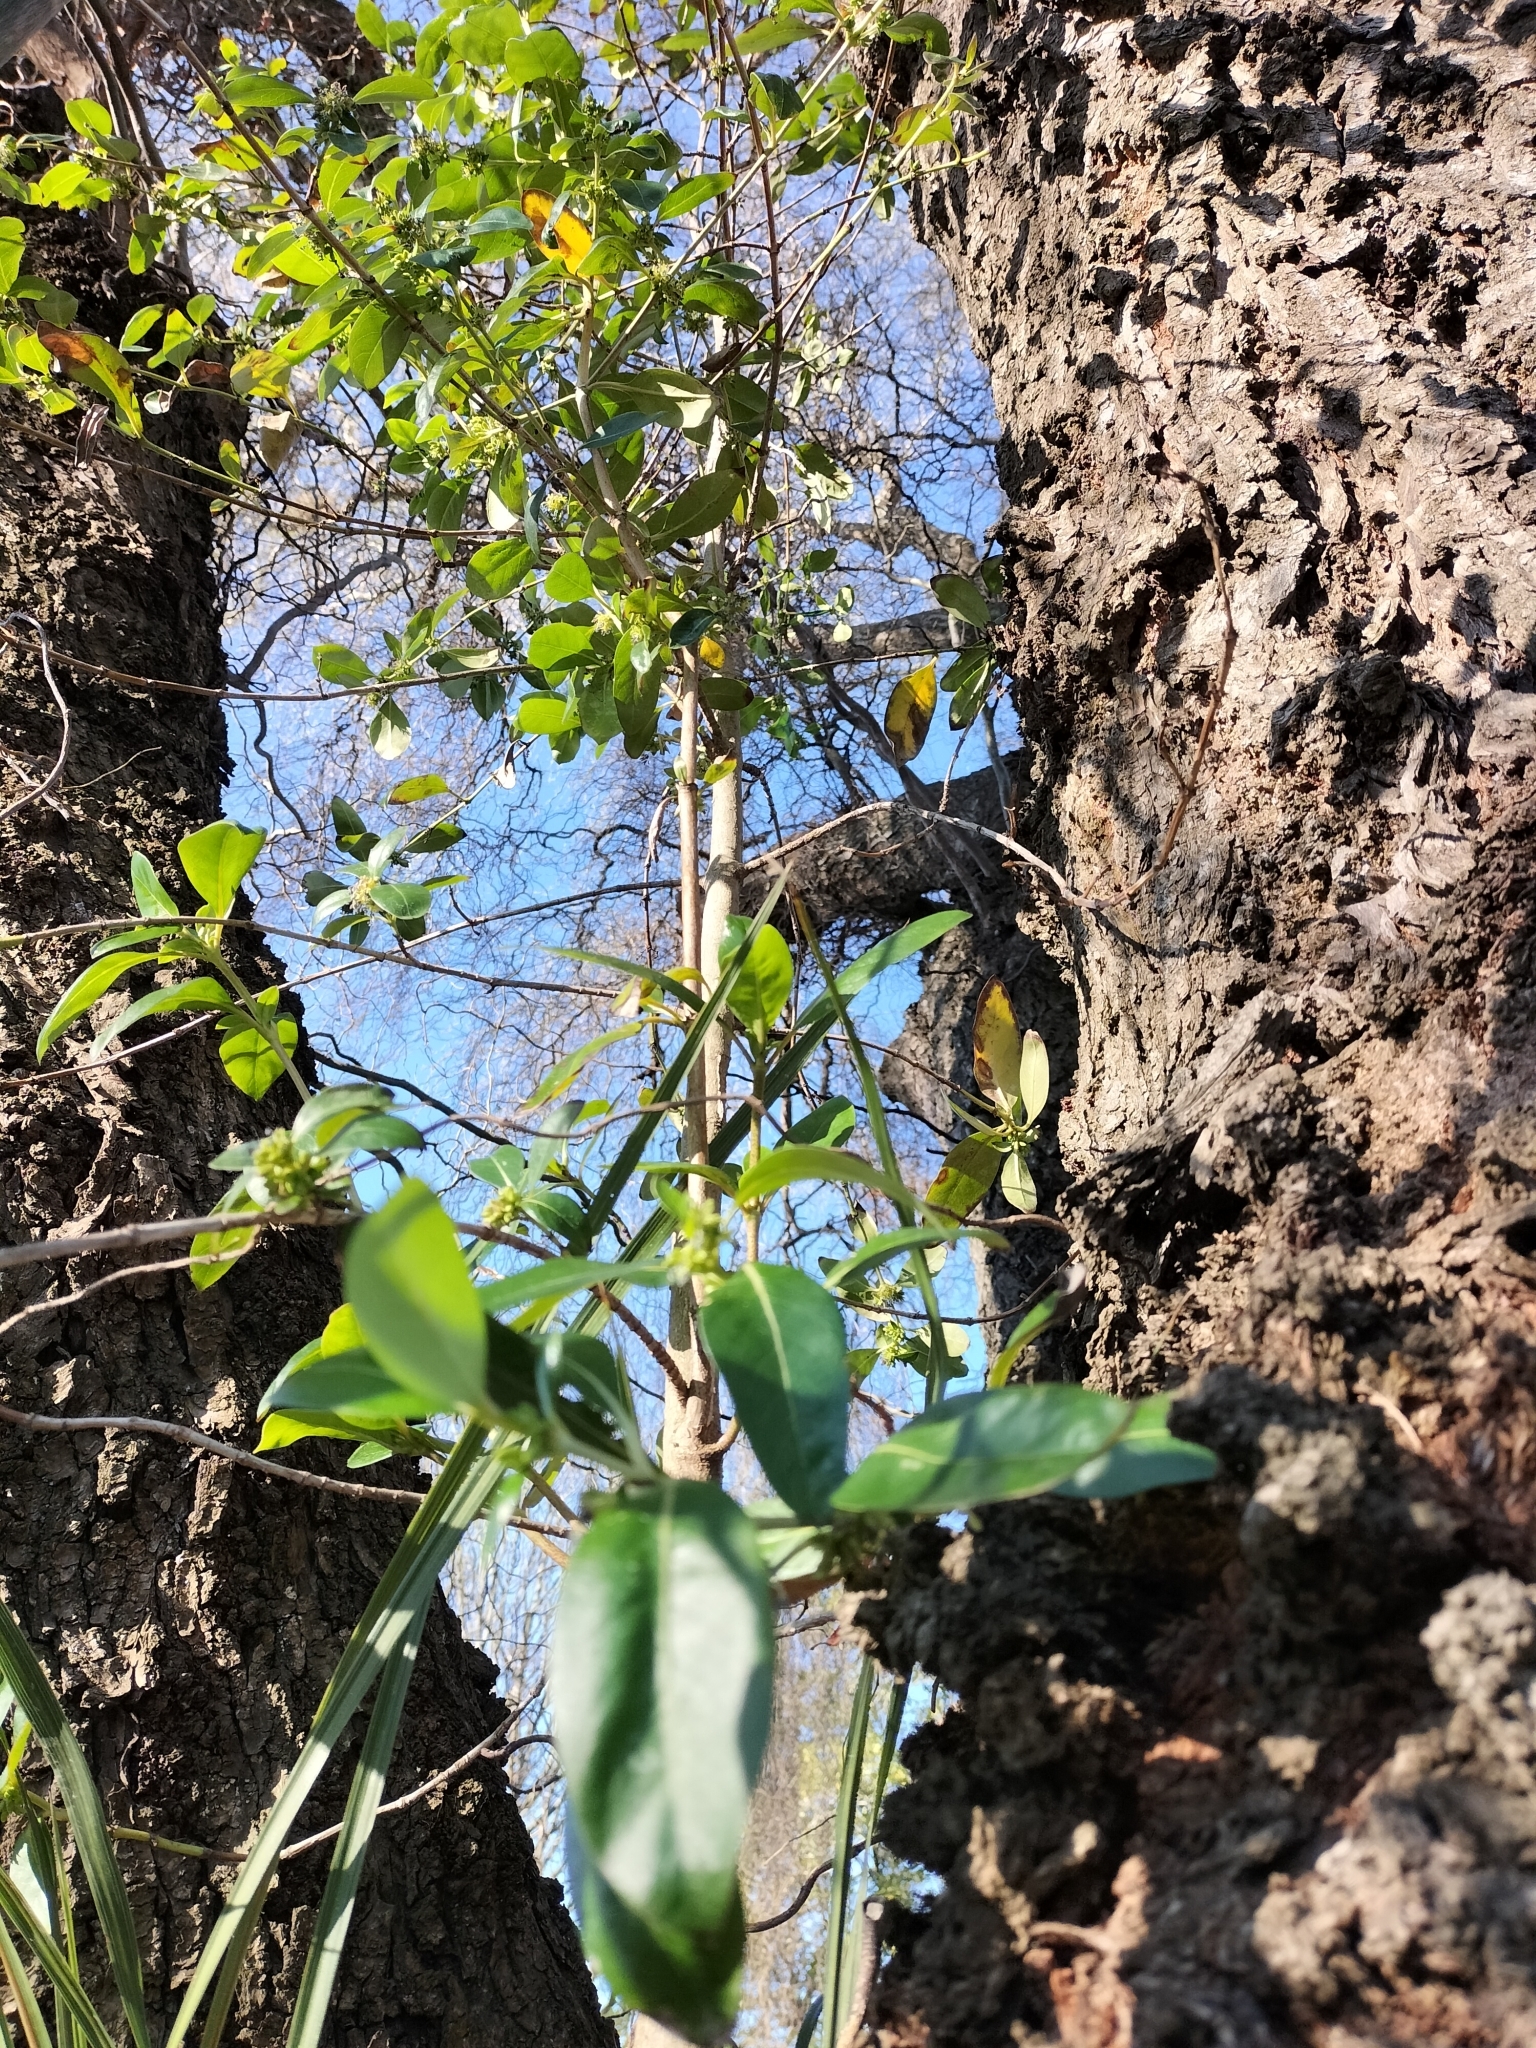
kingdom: Plantae
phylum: Tracheophyta
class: Magnoliopsida
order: Gentianales
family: Rubiaceae
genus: Coprosma
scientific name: Coprosma robusta
